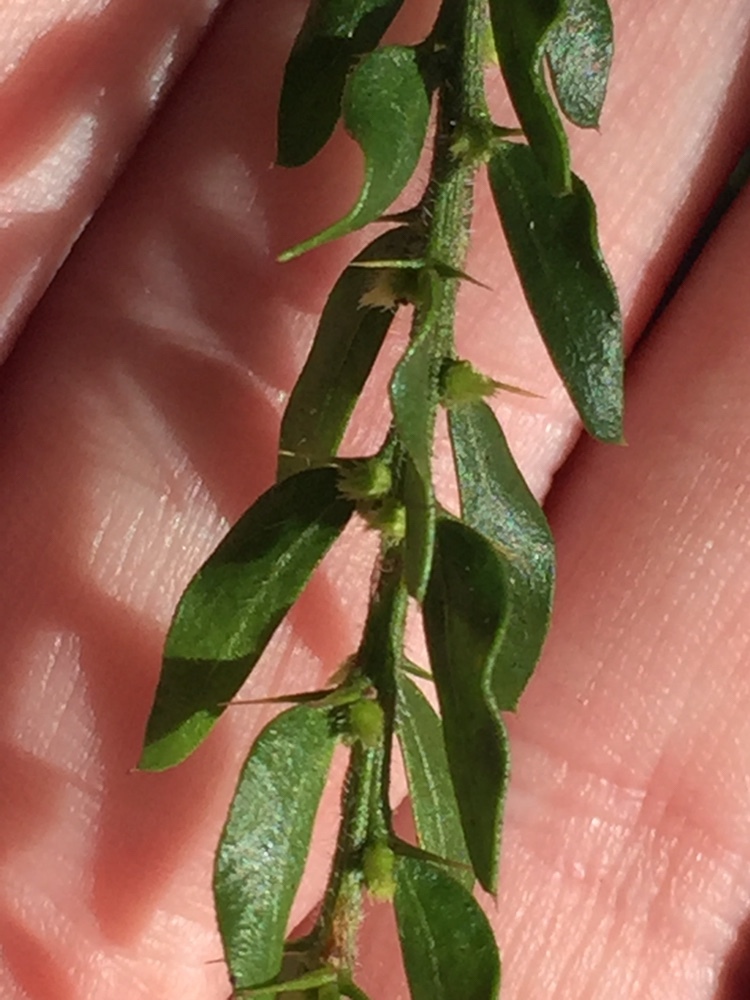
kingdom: Plantae
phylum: Tracheophyta
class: Magnoliopsida
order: Fabales
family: Fabaceae
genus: Acacia
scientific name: Acacia paradoxa
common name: Paradox acacia
